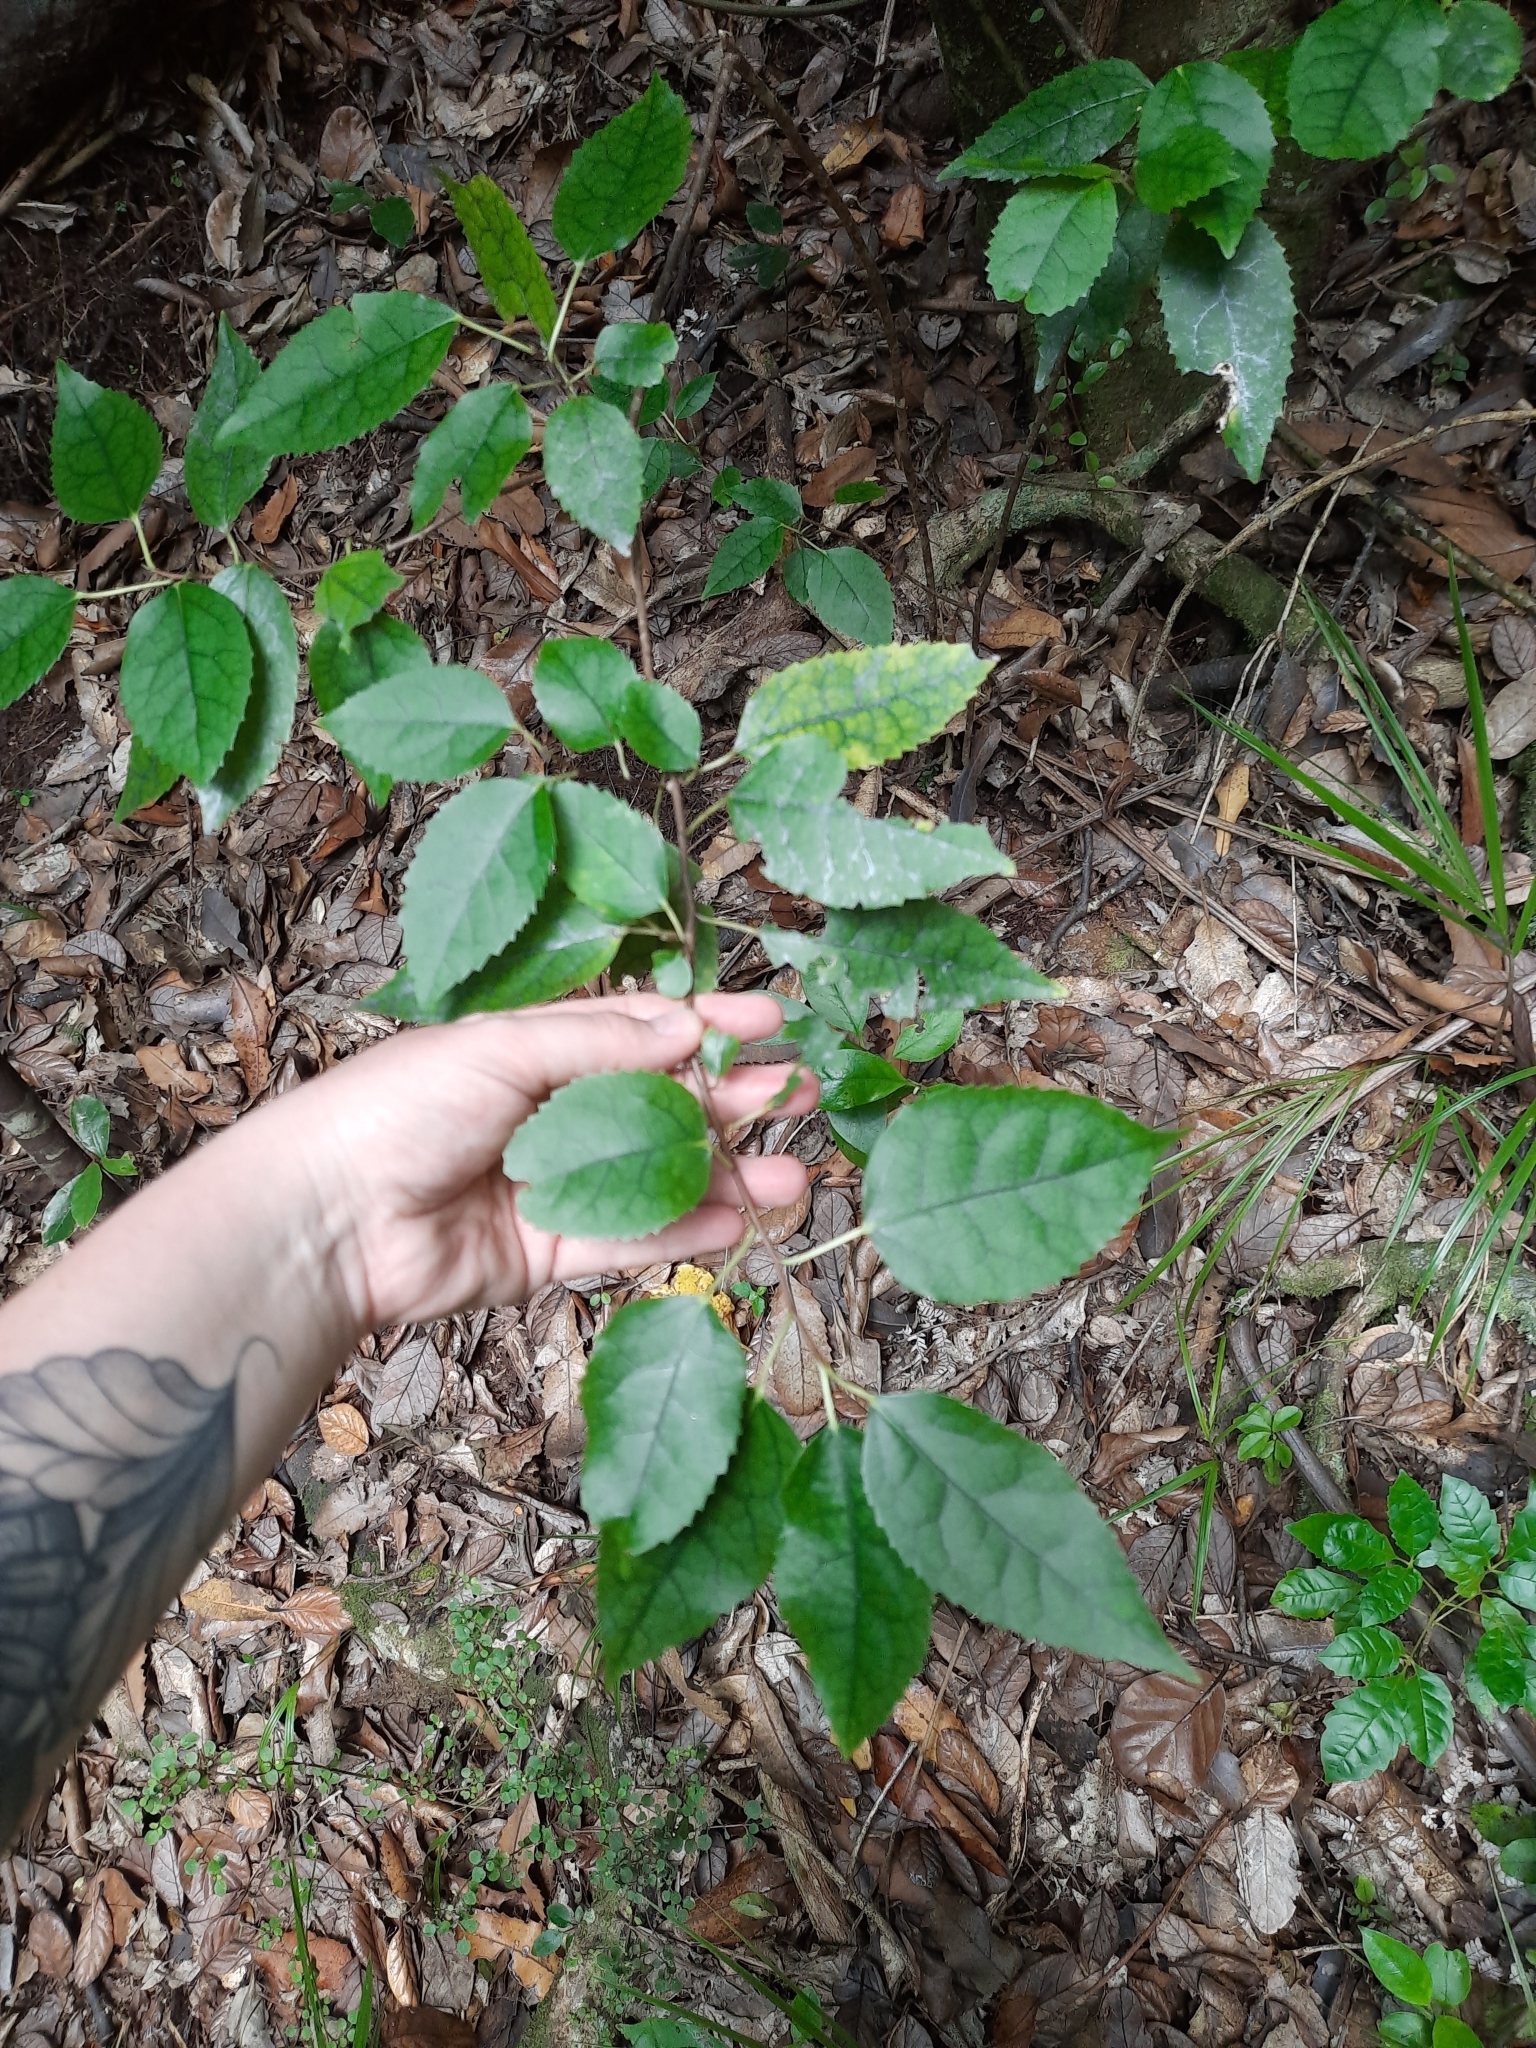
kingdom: Plantae
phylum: Tracheophyta
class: Magnoliopsida
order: Malvales
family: Malvaceae
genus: Hoheria
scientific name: Hoheria populnea
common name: Lacebark
